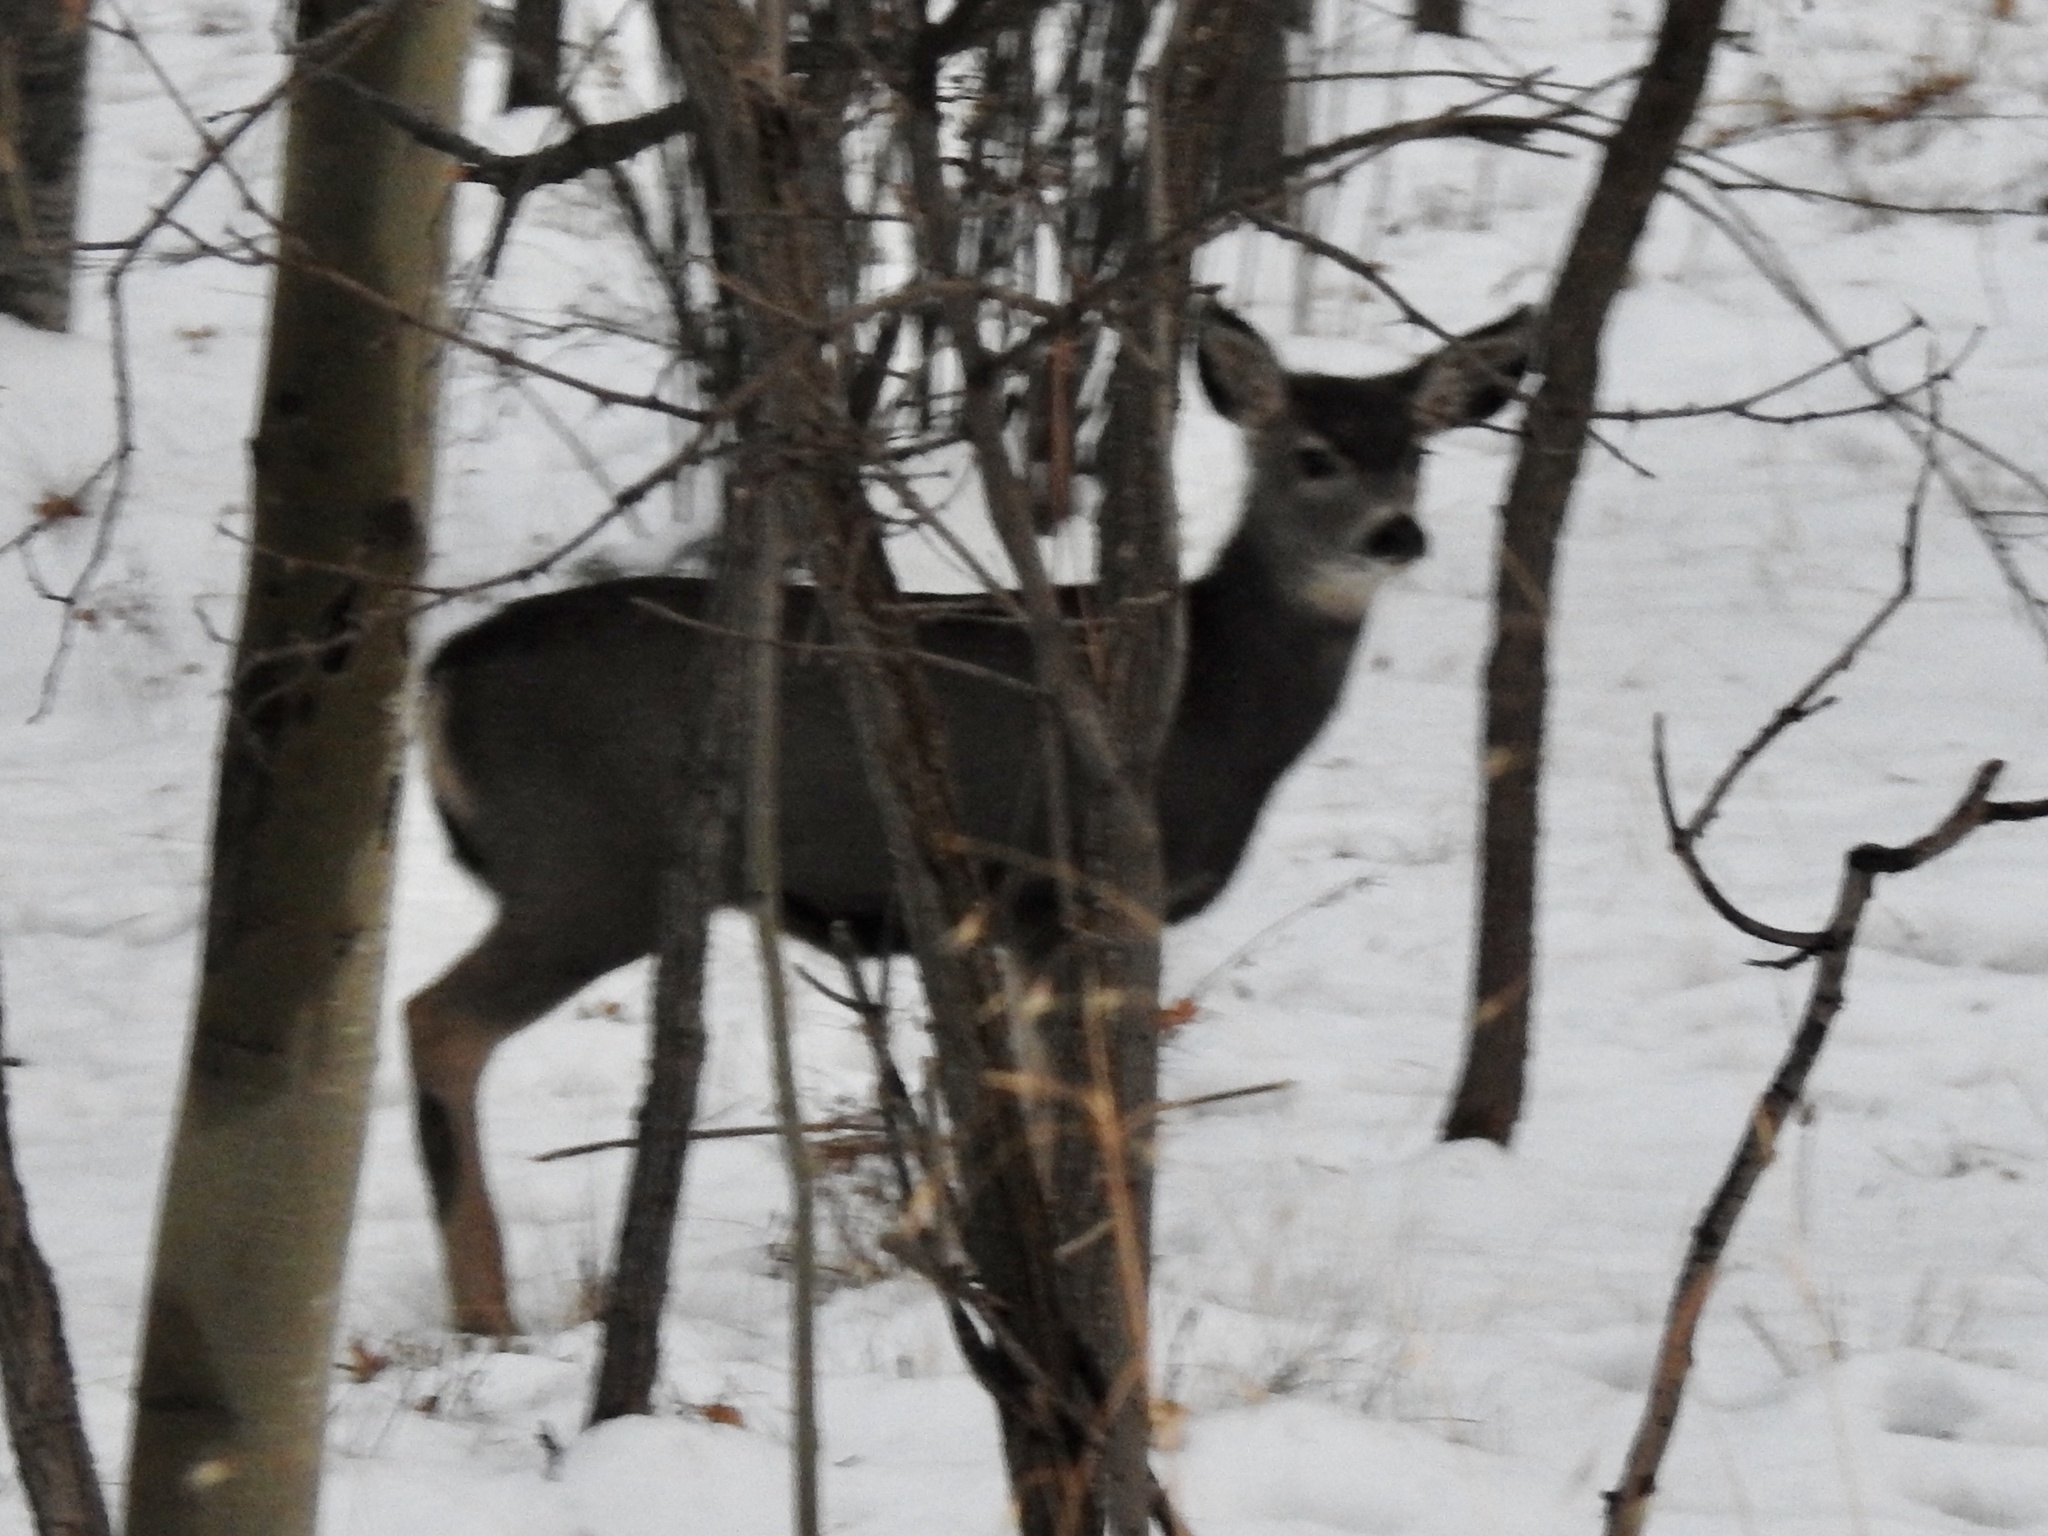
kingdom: Animalia
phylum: Chordata
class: Mammalia
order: Artiodactyla
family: Cervidae
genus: Odocoileus
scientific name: Odocoileus hemionus
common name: Mule deer
